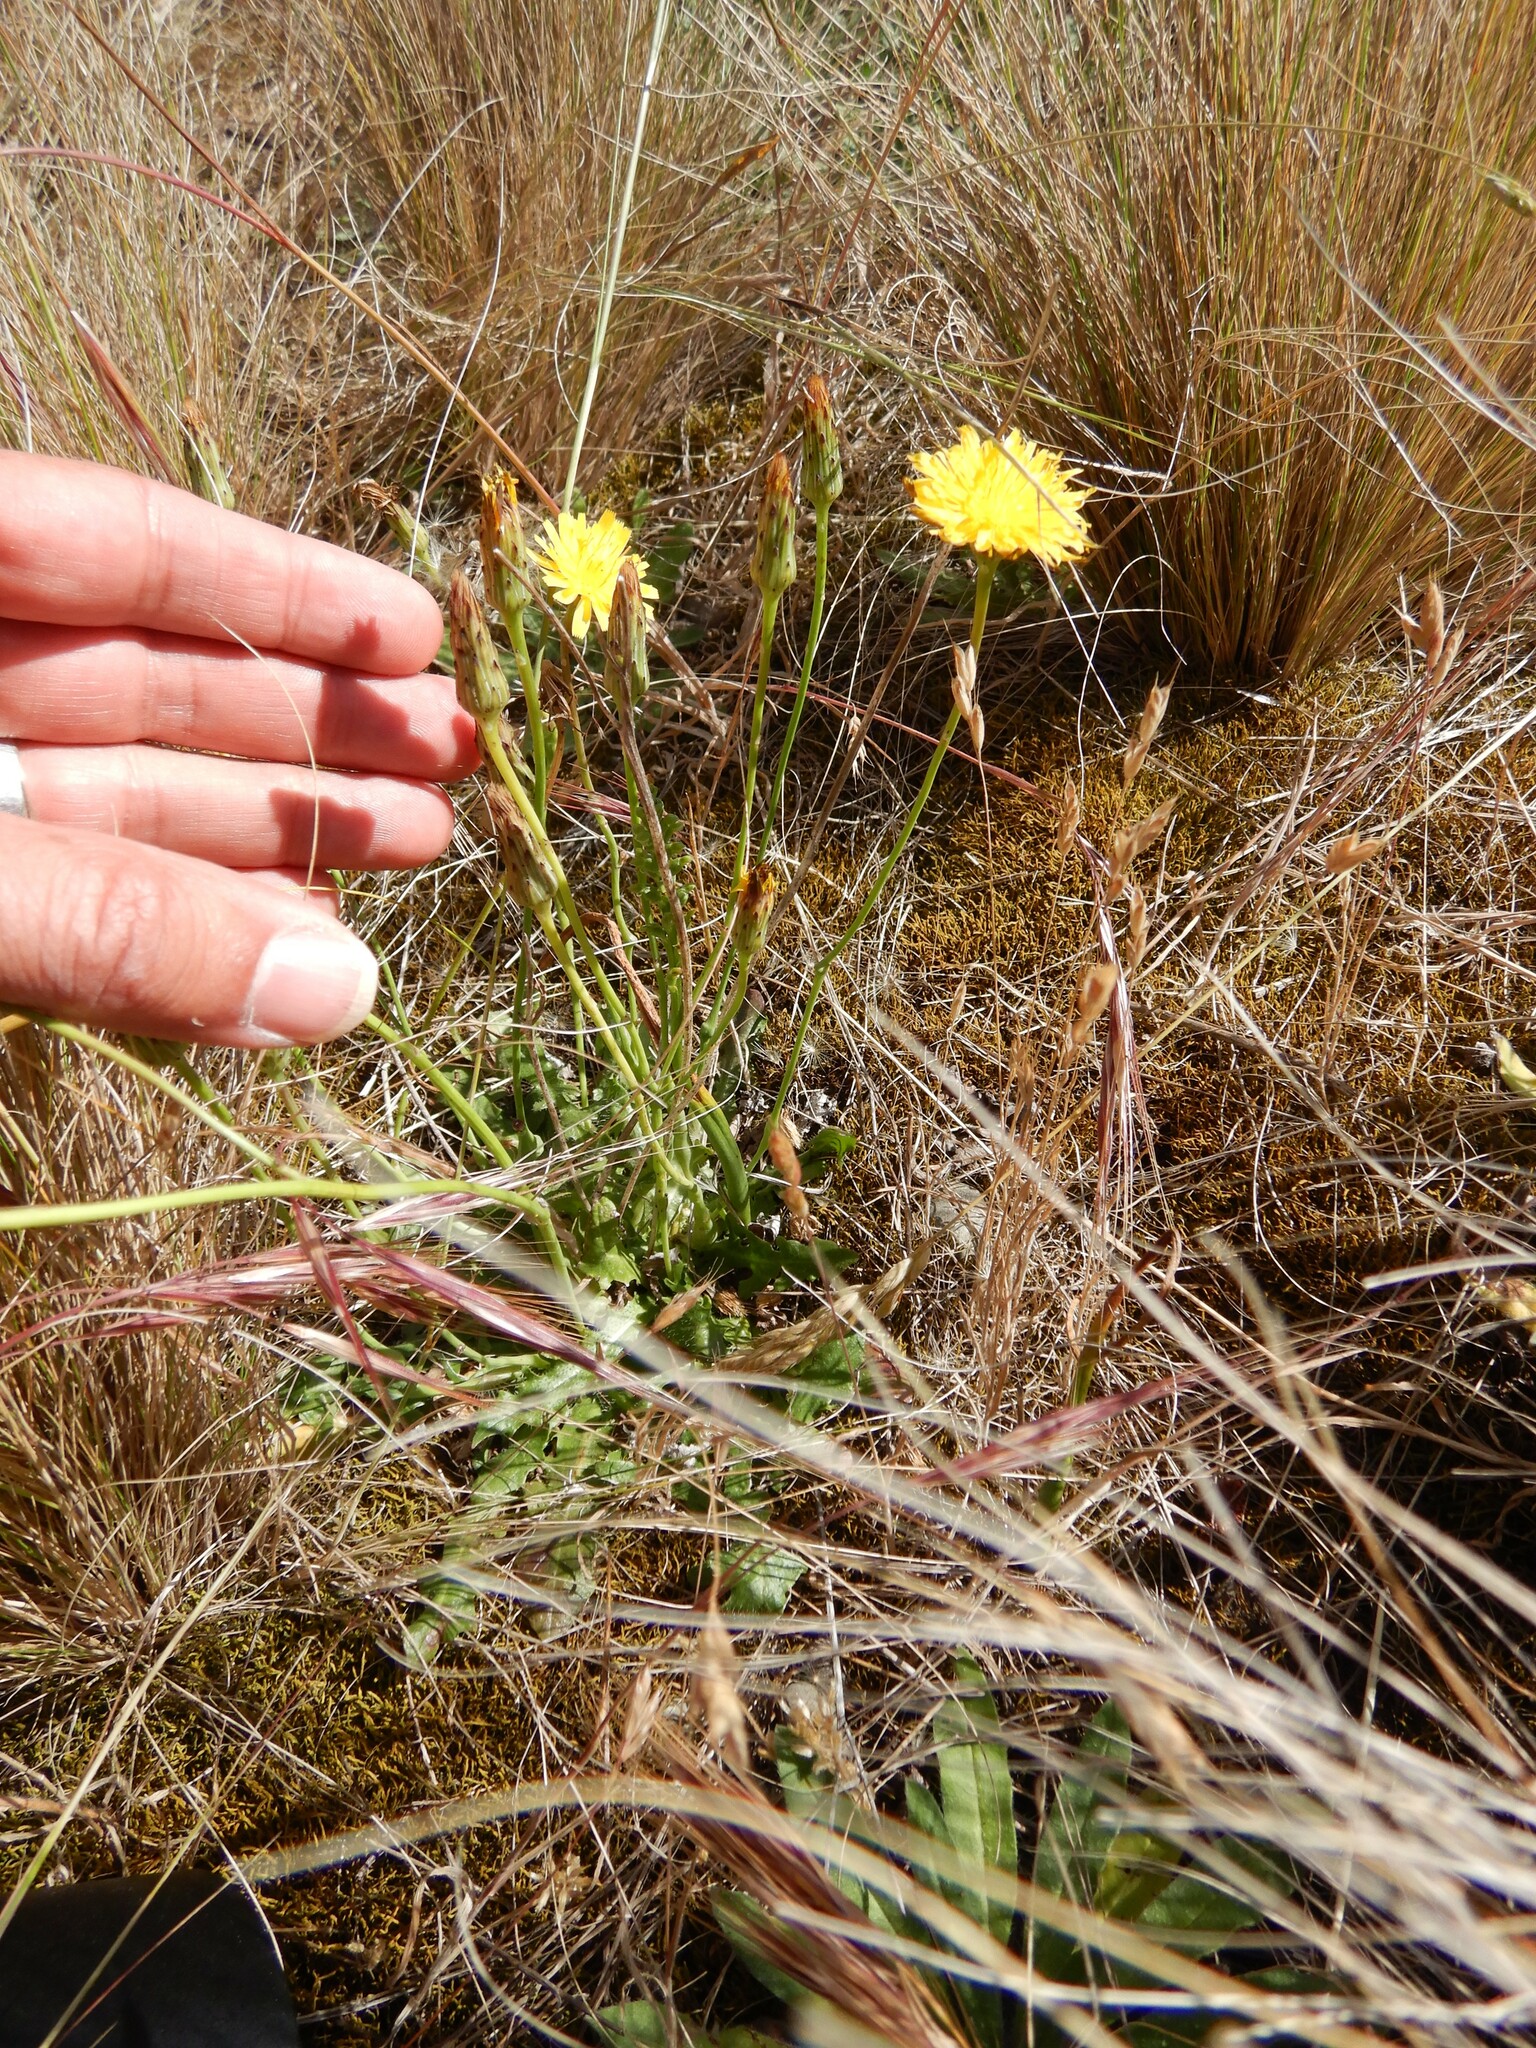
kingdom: Plantae
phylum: Tracheophyta
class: Magnoliopsida
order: Asterales
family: Asteraceae
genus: Hypochaeris
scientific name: Hypochaeris radicata
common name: Flatweed
